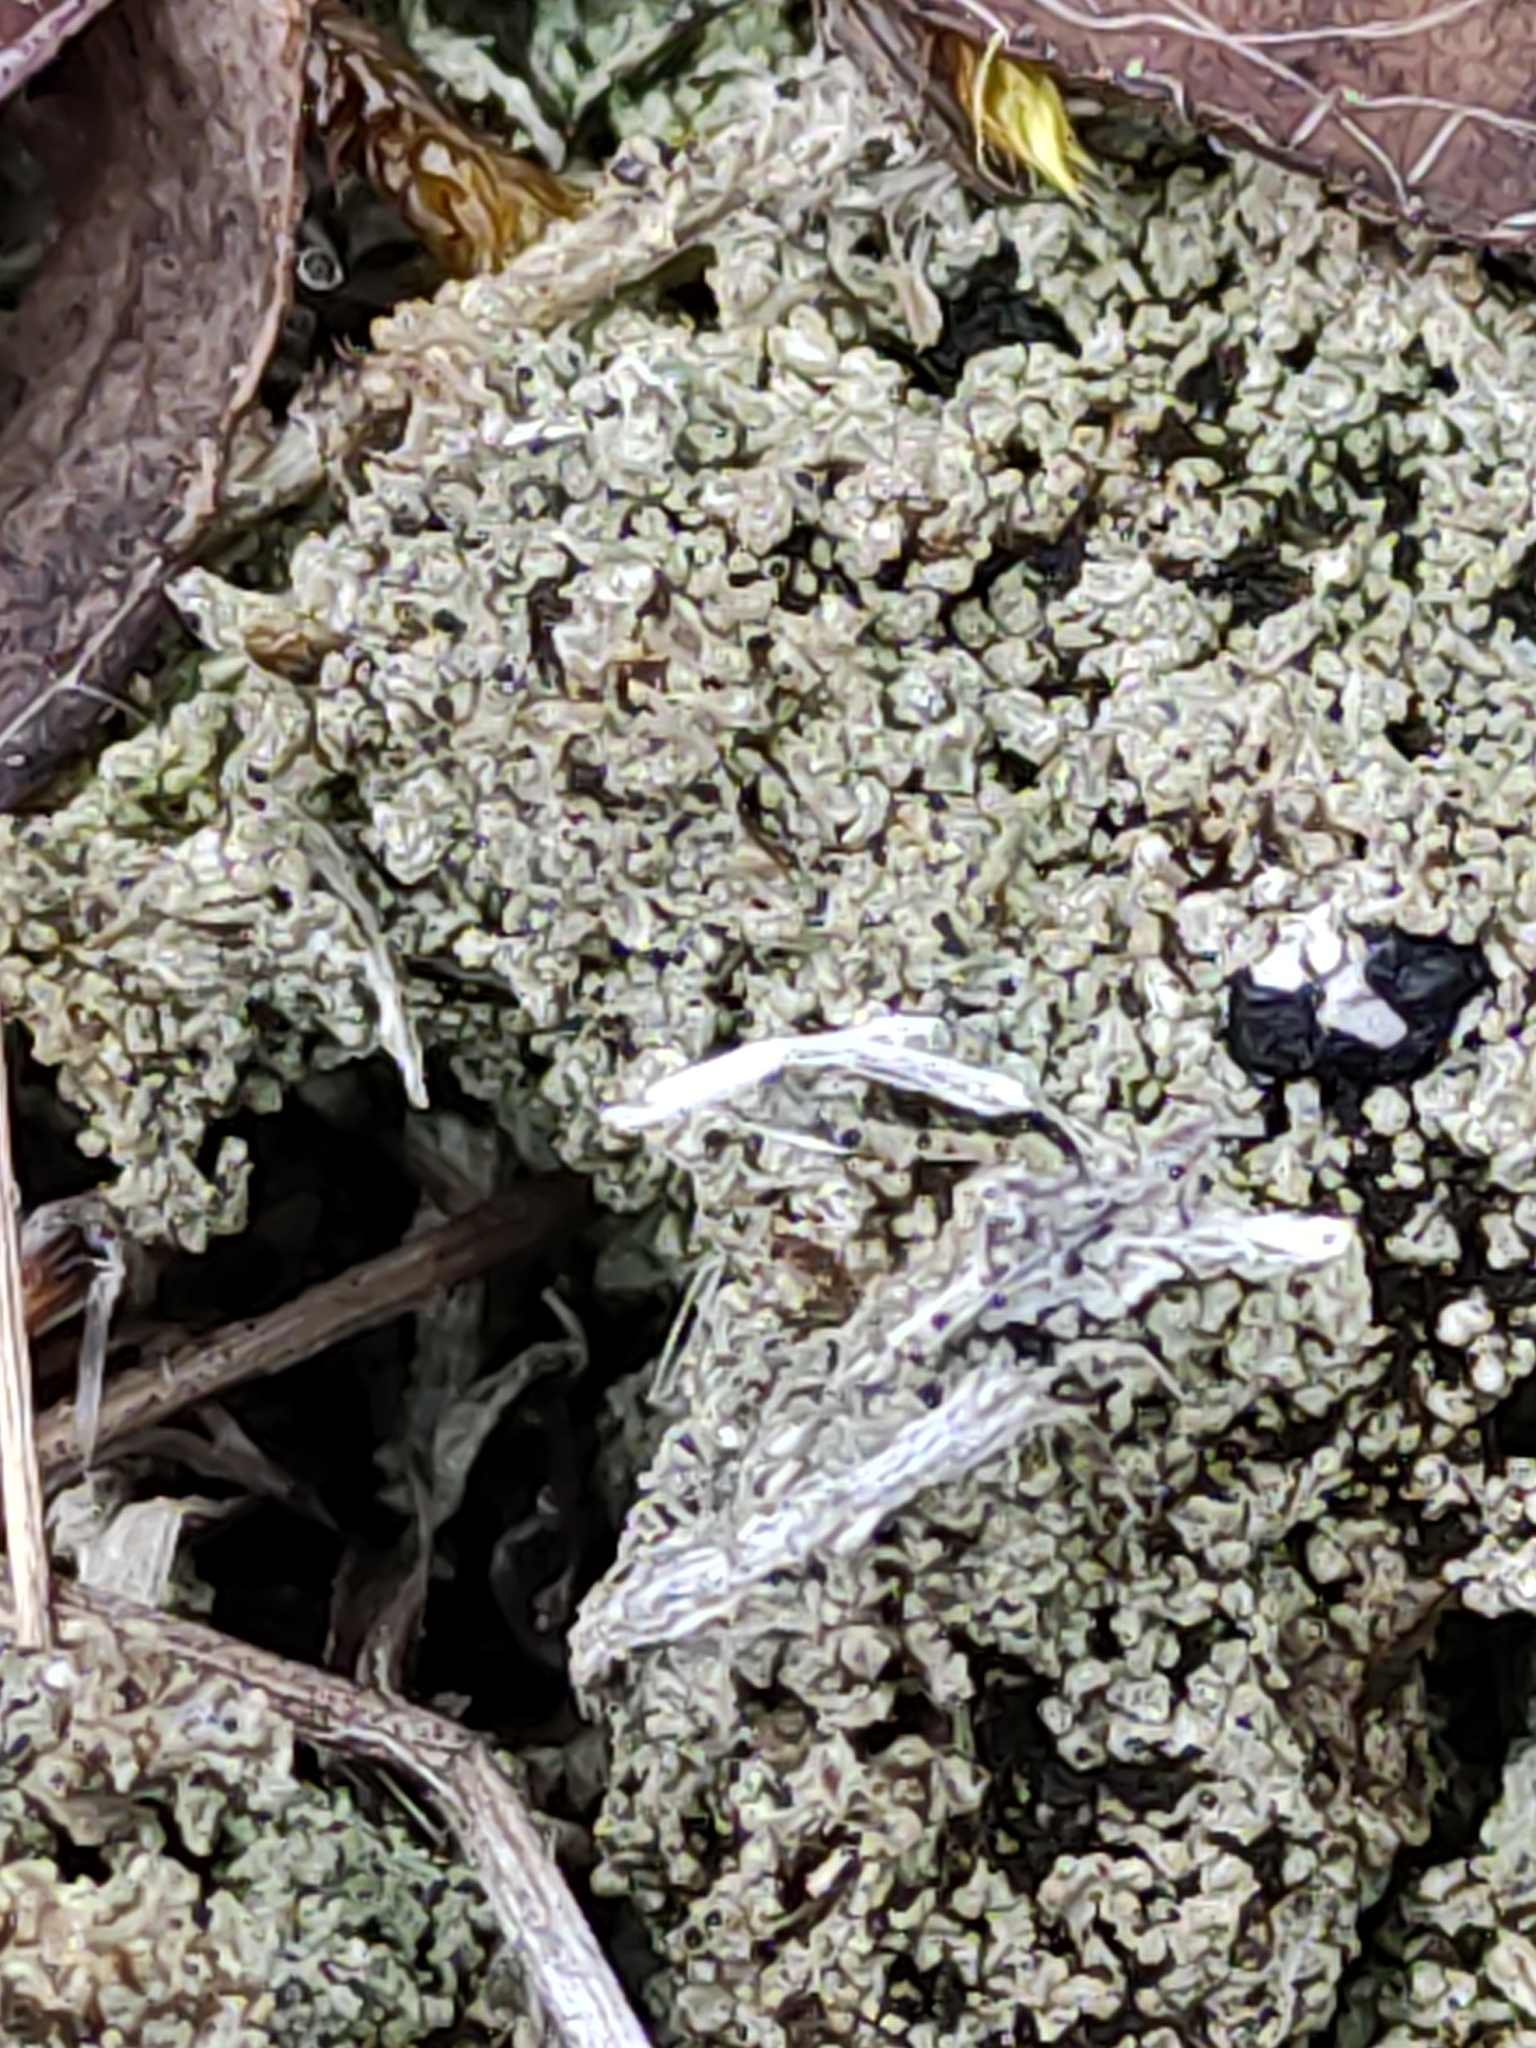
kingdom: Plantae
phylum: Tracheophyta
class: Magnoliopsida
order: Asterales
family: Asteraceae
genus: Pilosella
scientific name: Pilosella officinarum
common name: Mouse-ear hawkweed
